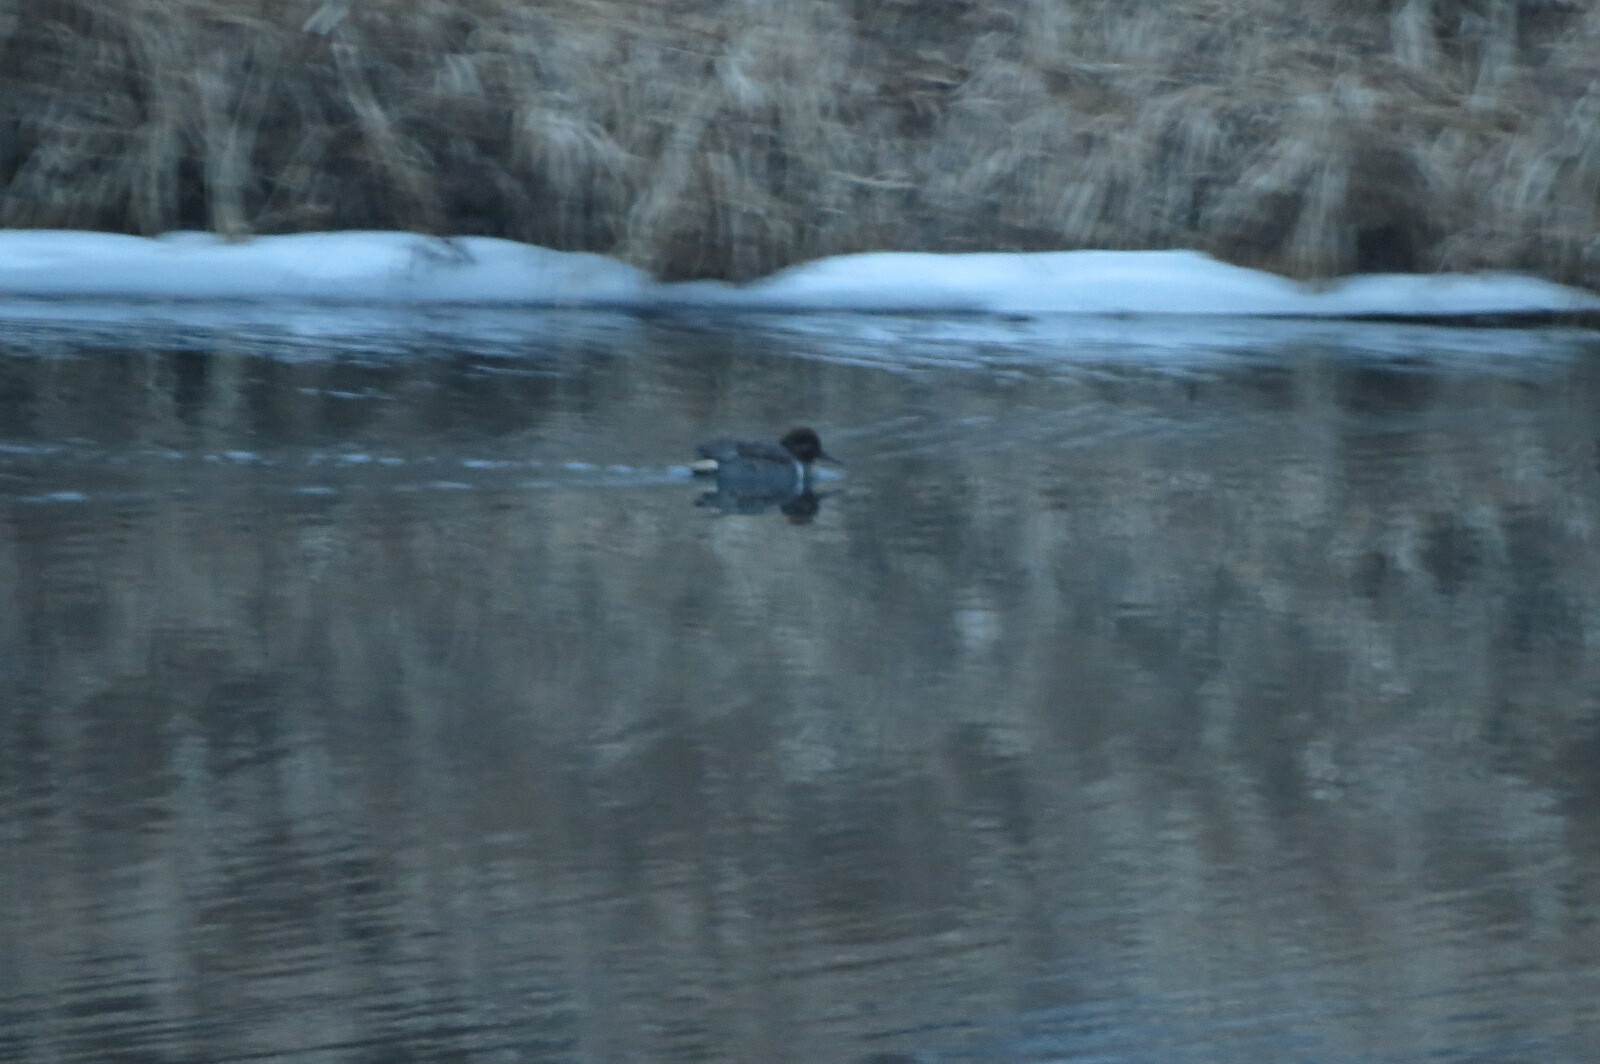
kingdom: Animalia
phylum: Chordata
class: Aves
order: Anseriformes
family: Anatidae
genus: Anas
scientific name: Anas crecca
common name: Eurasian teal
